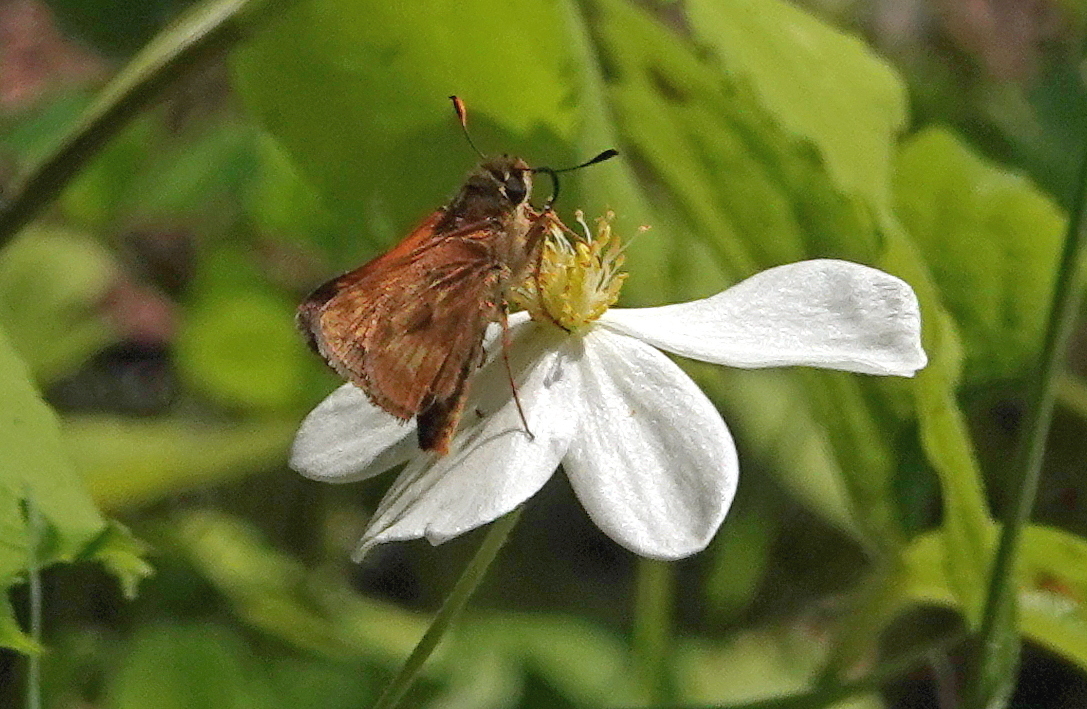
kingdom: Animalia
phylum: Arthropoda
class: Insecta
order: Lepidoptera
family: Hesperiidae
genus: Polites
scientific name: Polites mystic
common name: Long dash
